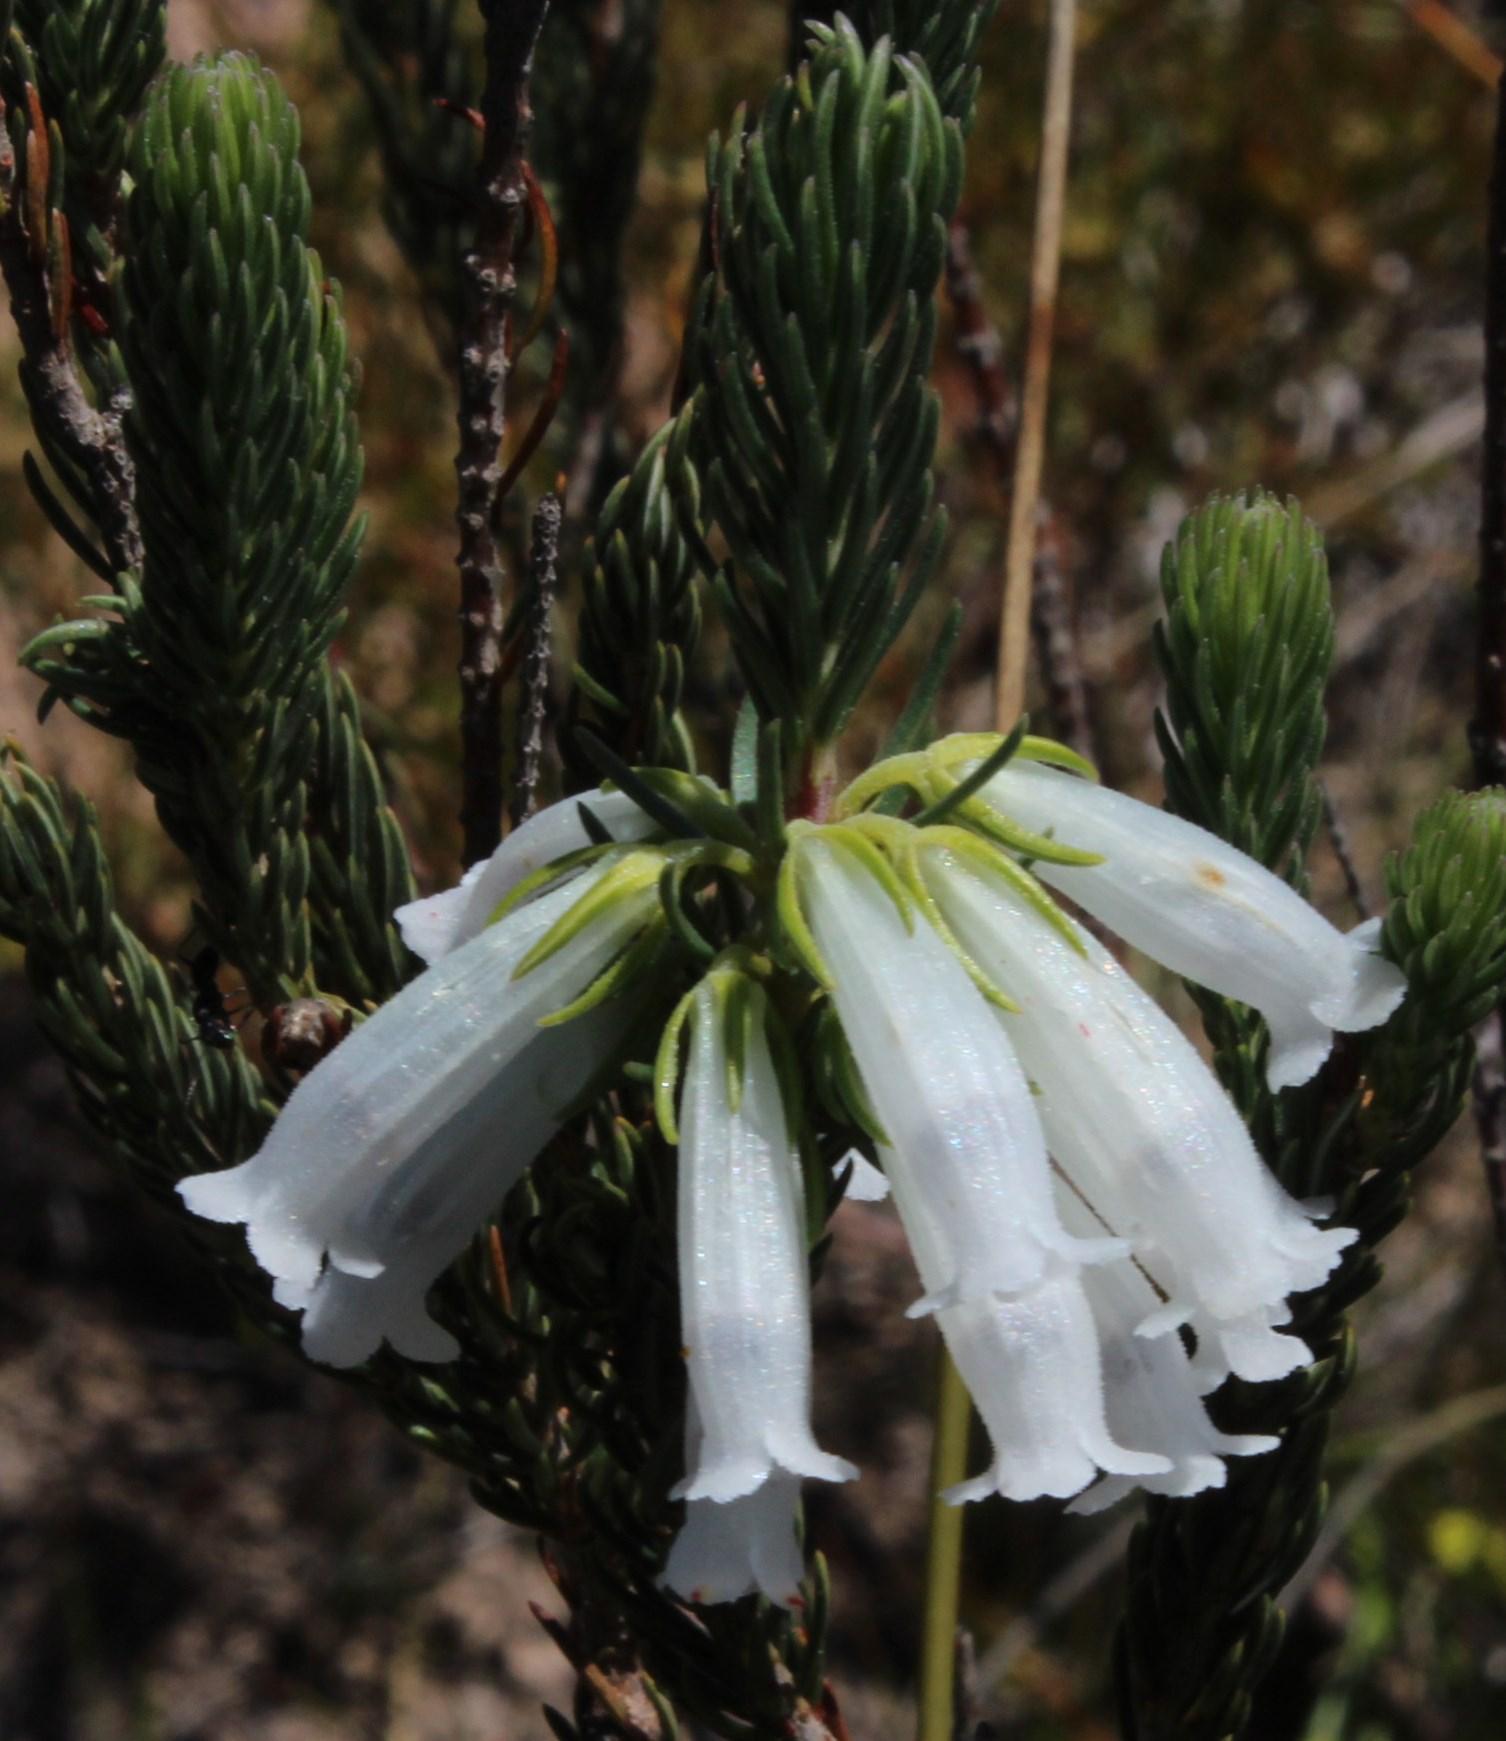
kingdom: Plantae
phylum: Tracheophyta
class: Magnoliopsida
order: Ericales
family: Ericaceae
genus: Erica
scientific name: Erica viscaria
